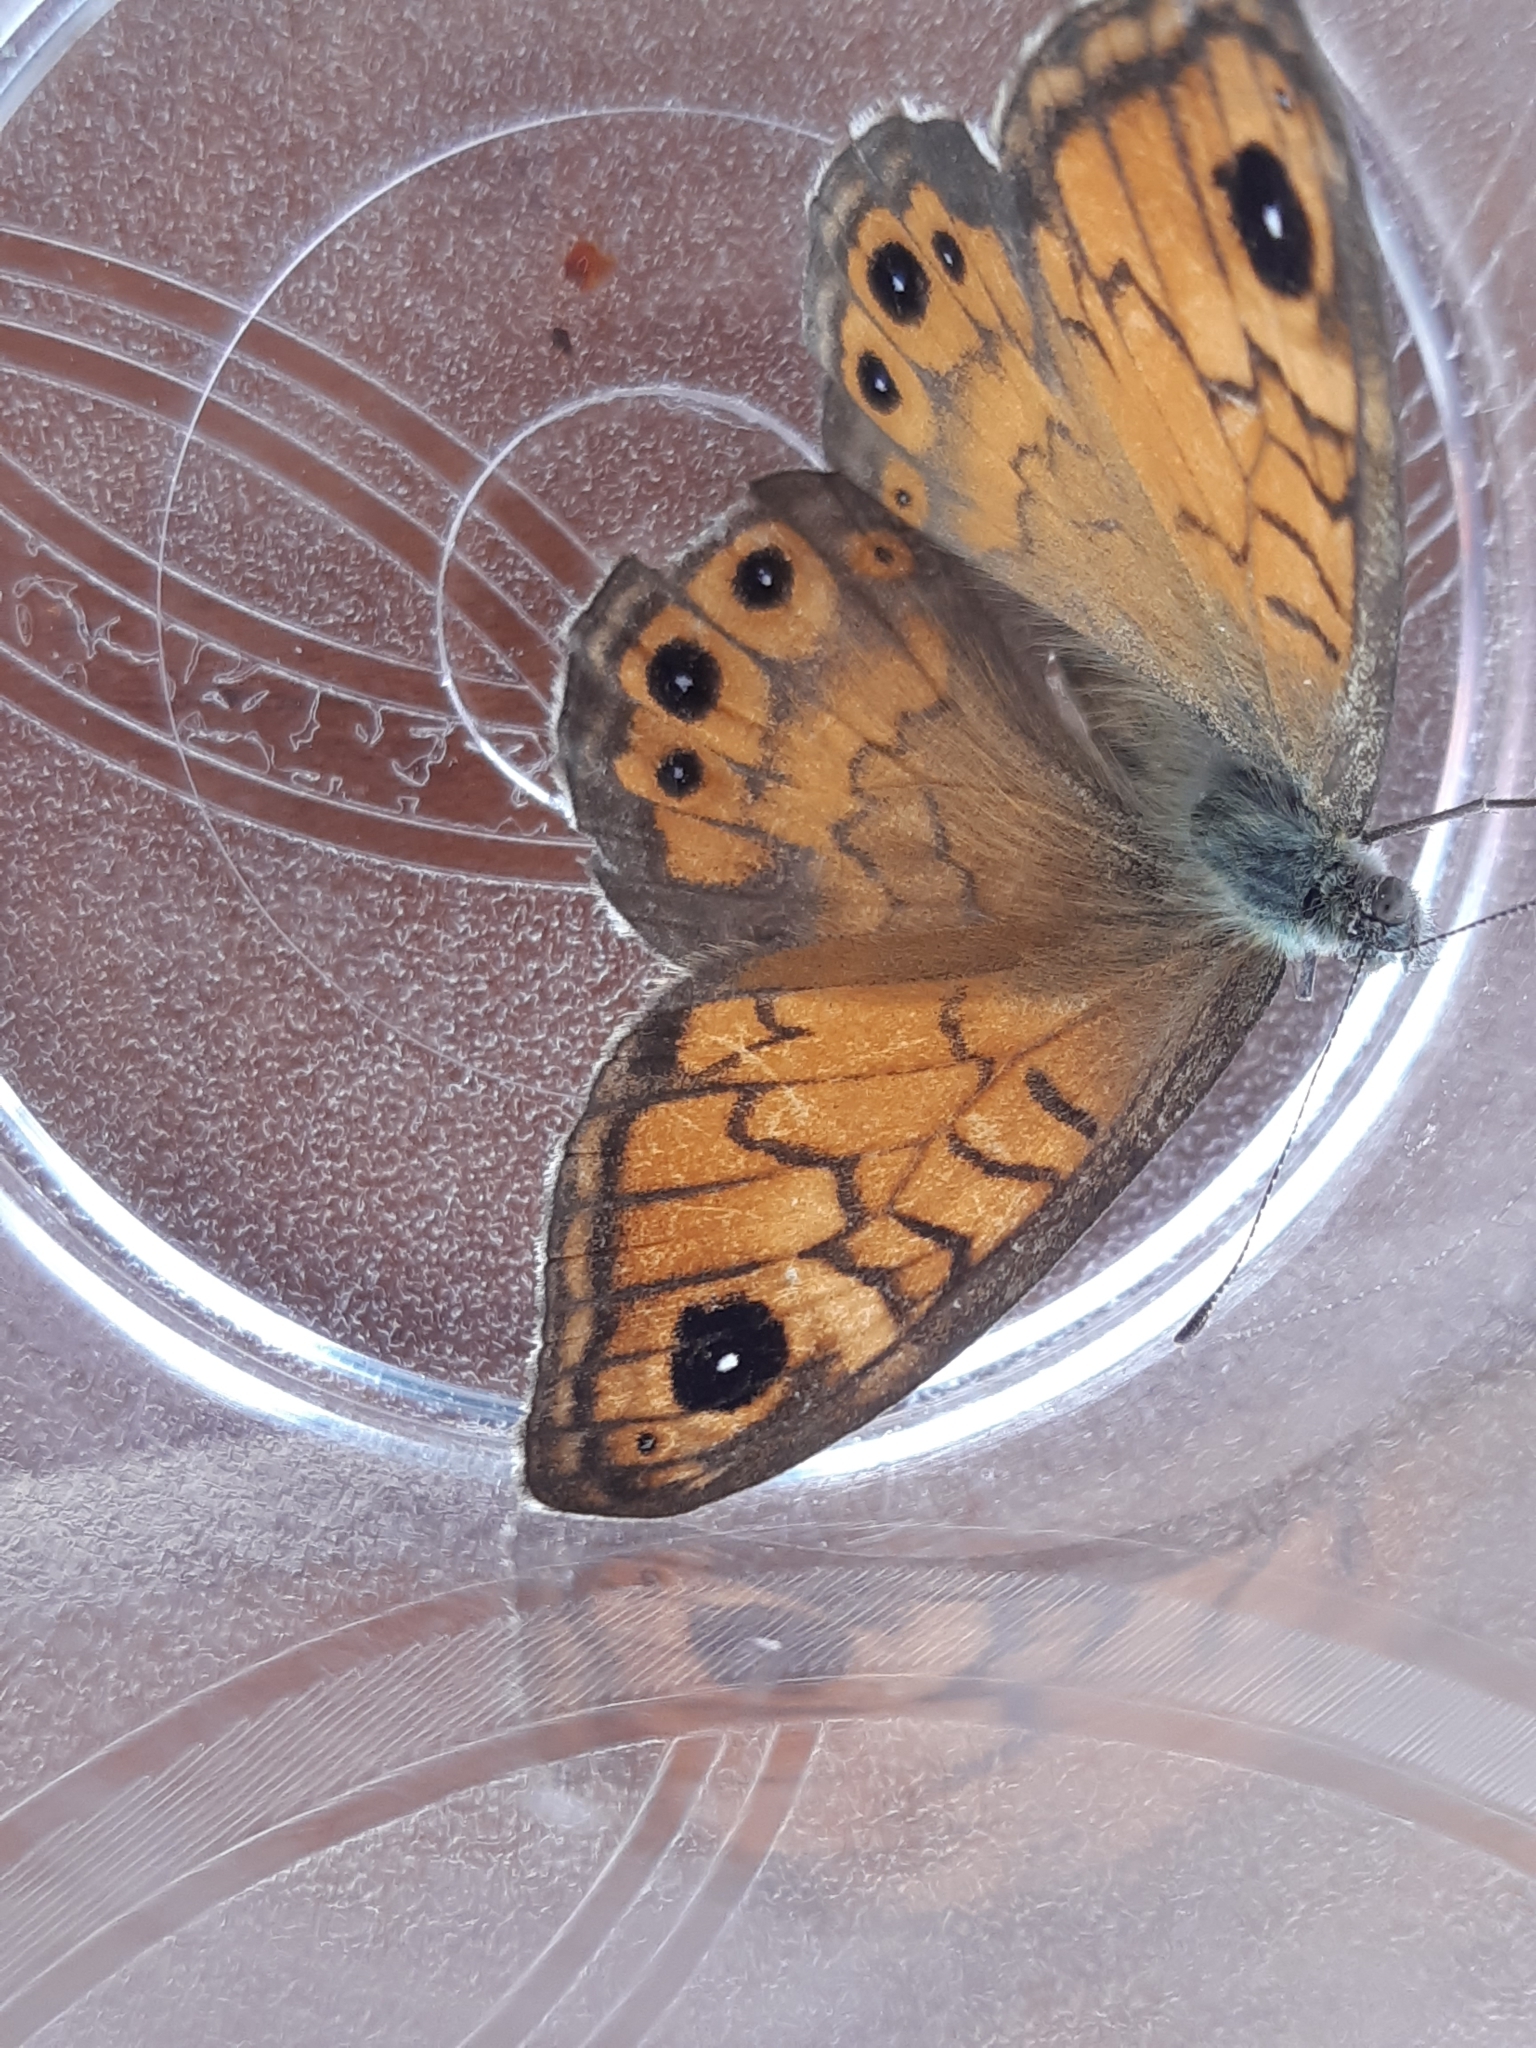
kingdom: Animalia
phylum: Arthropoda
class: Insecta
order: Lepidoptera
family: Nymphalidae
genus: Pararge
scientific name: Pararge Lasiommata megera
